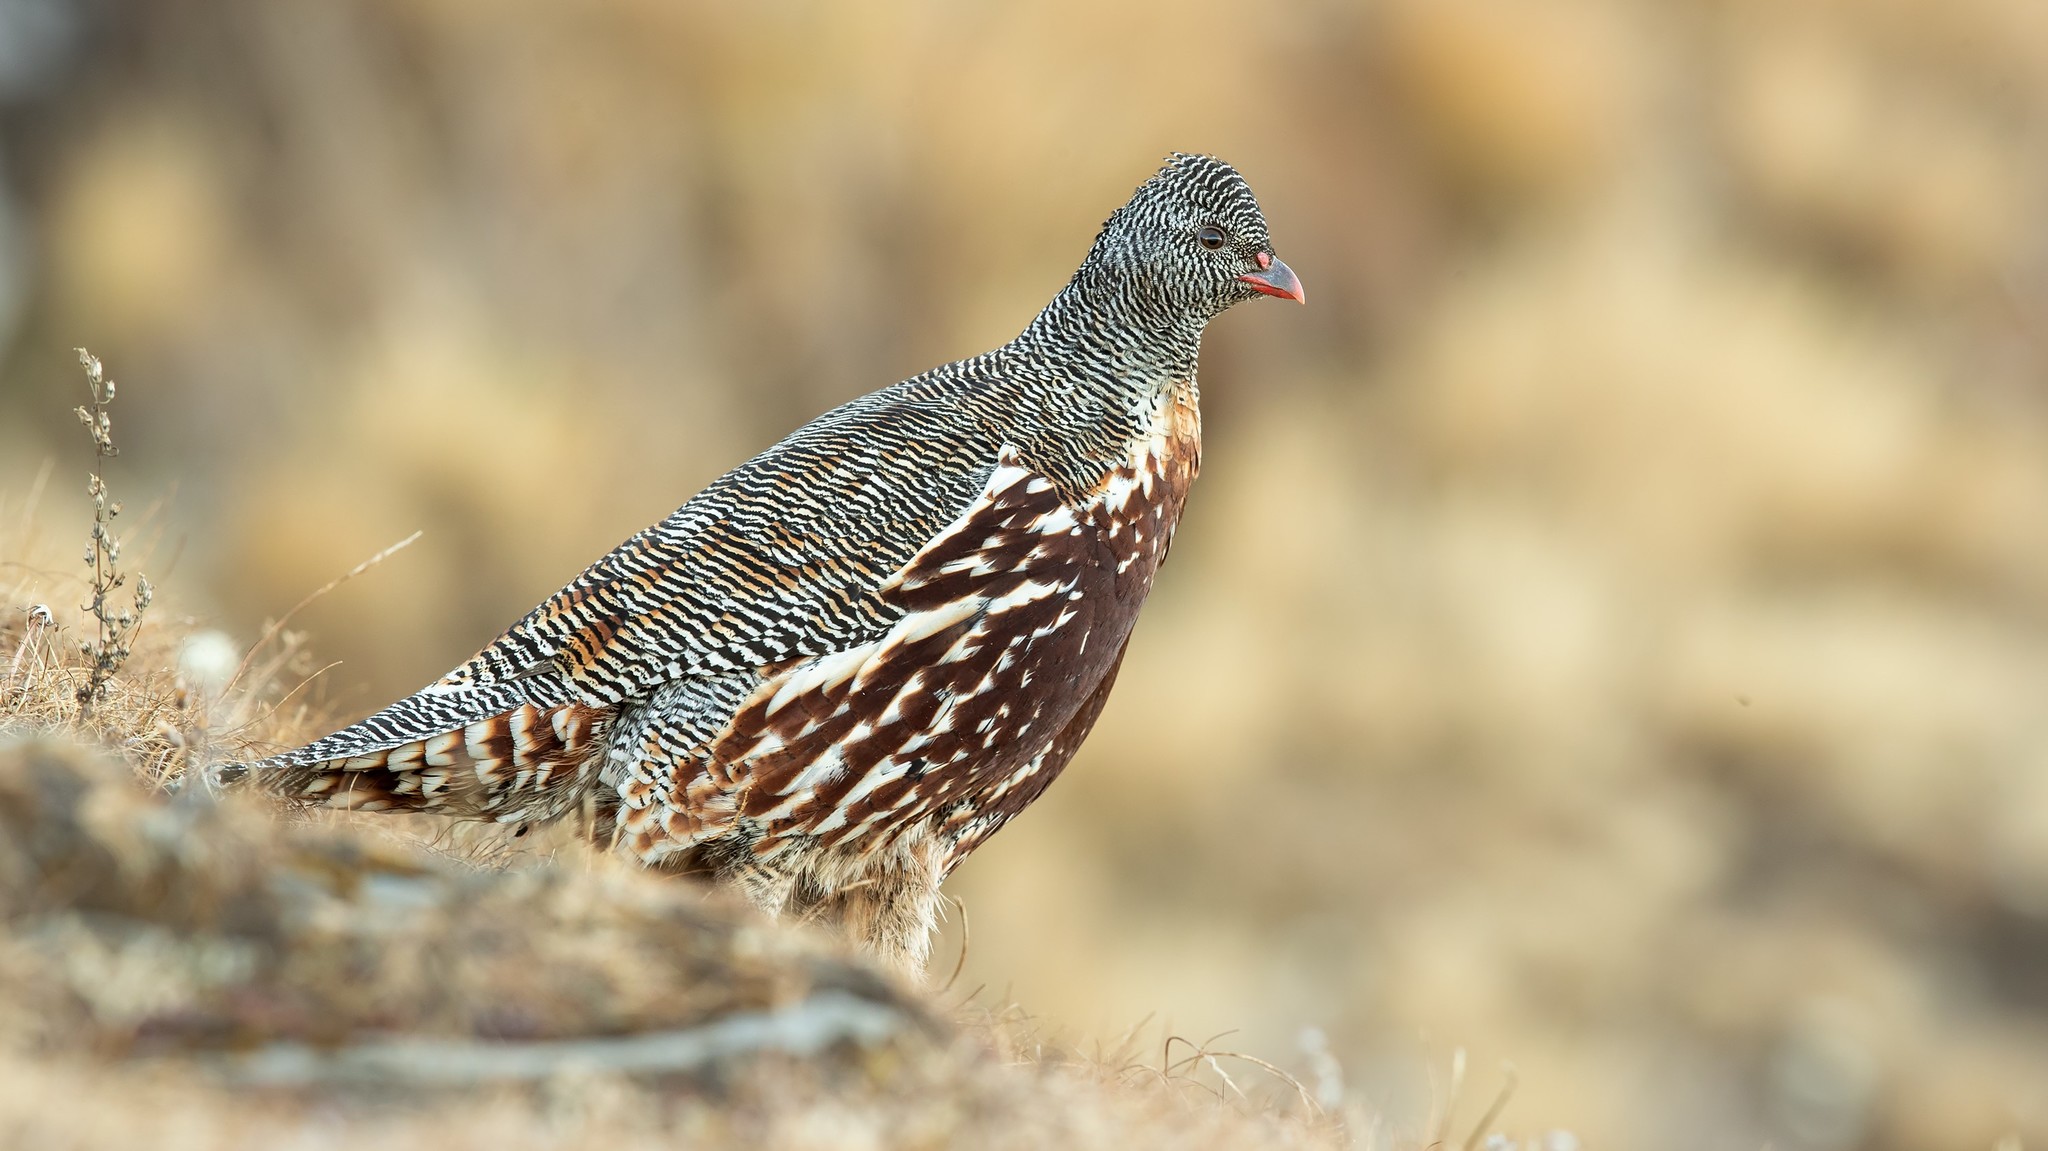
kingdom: Animalia
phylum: Chordata
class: Aves
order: Galliformes
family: Phasianidae
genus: Lerwa
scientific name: Lerwa lerwa
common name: Snow partridge
